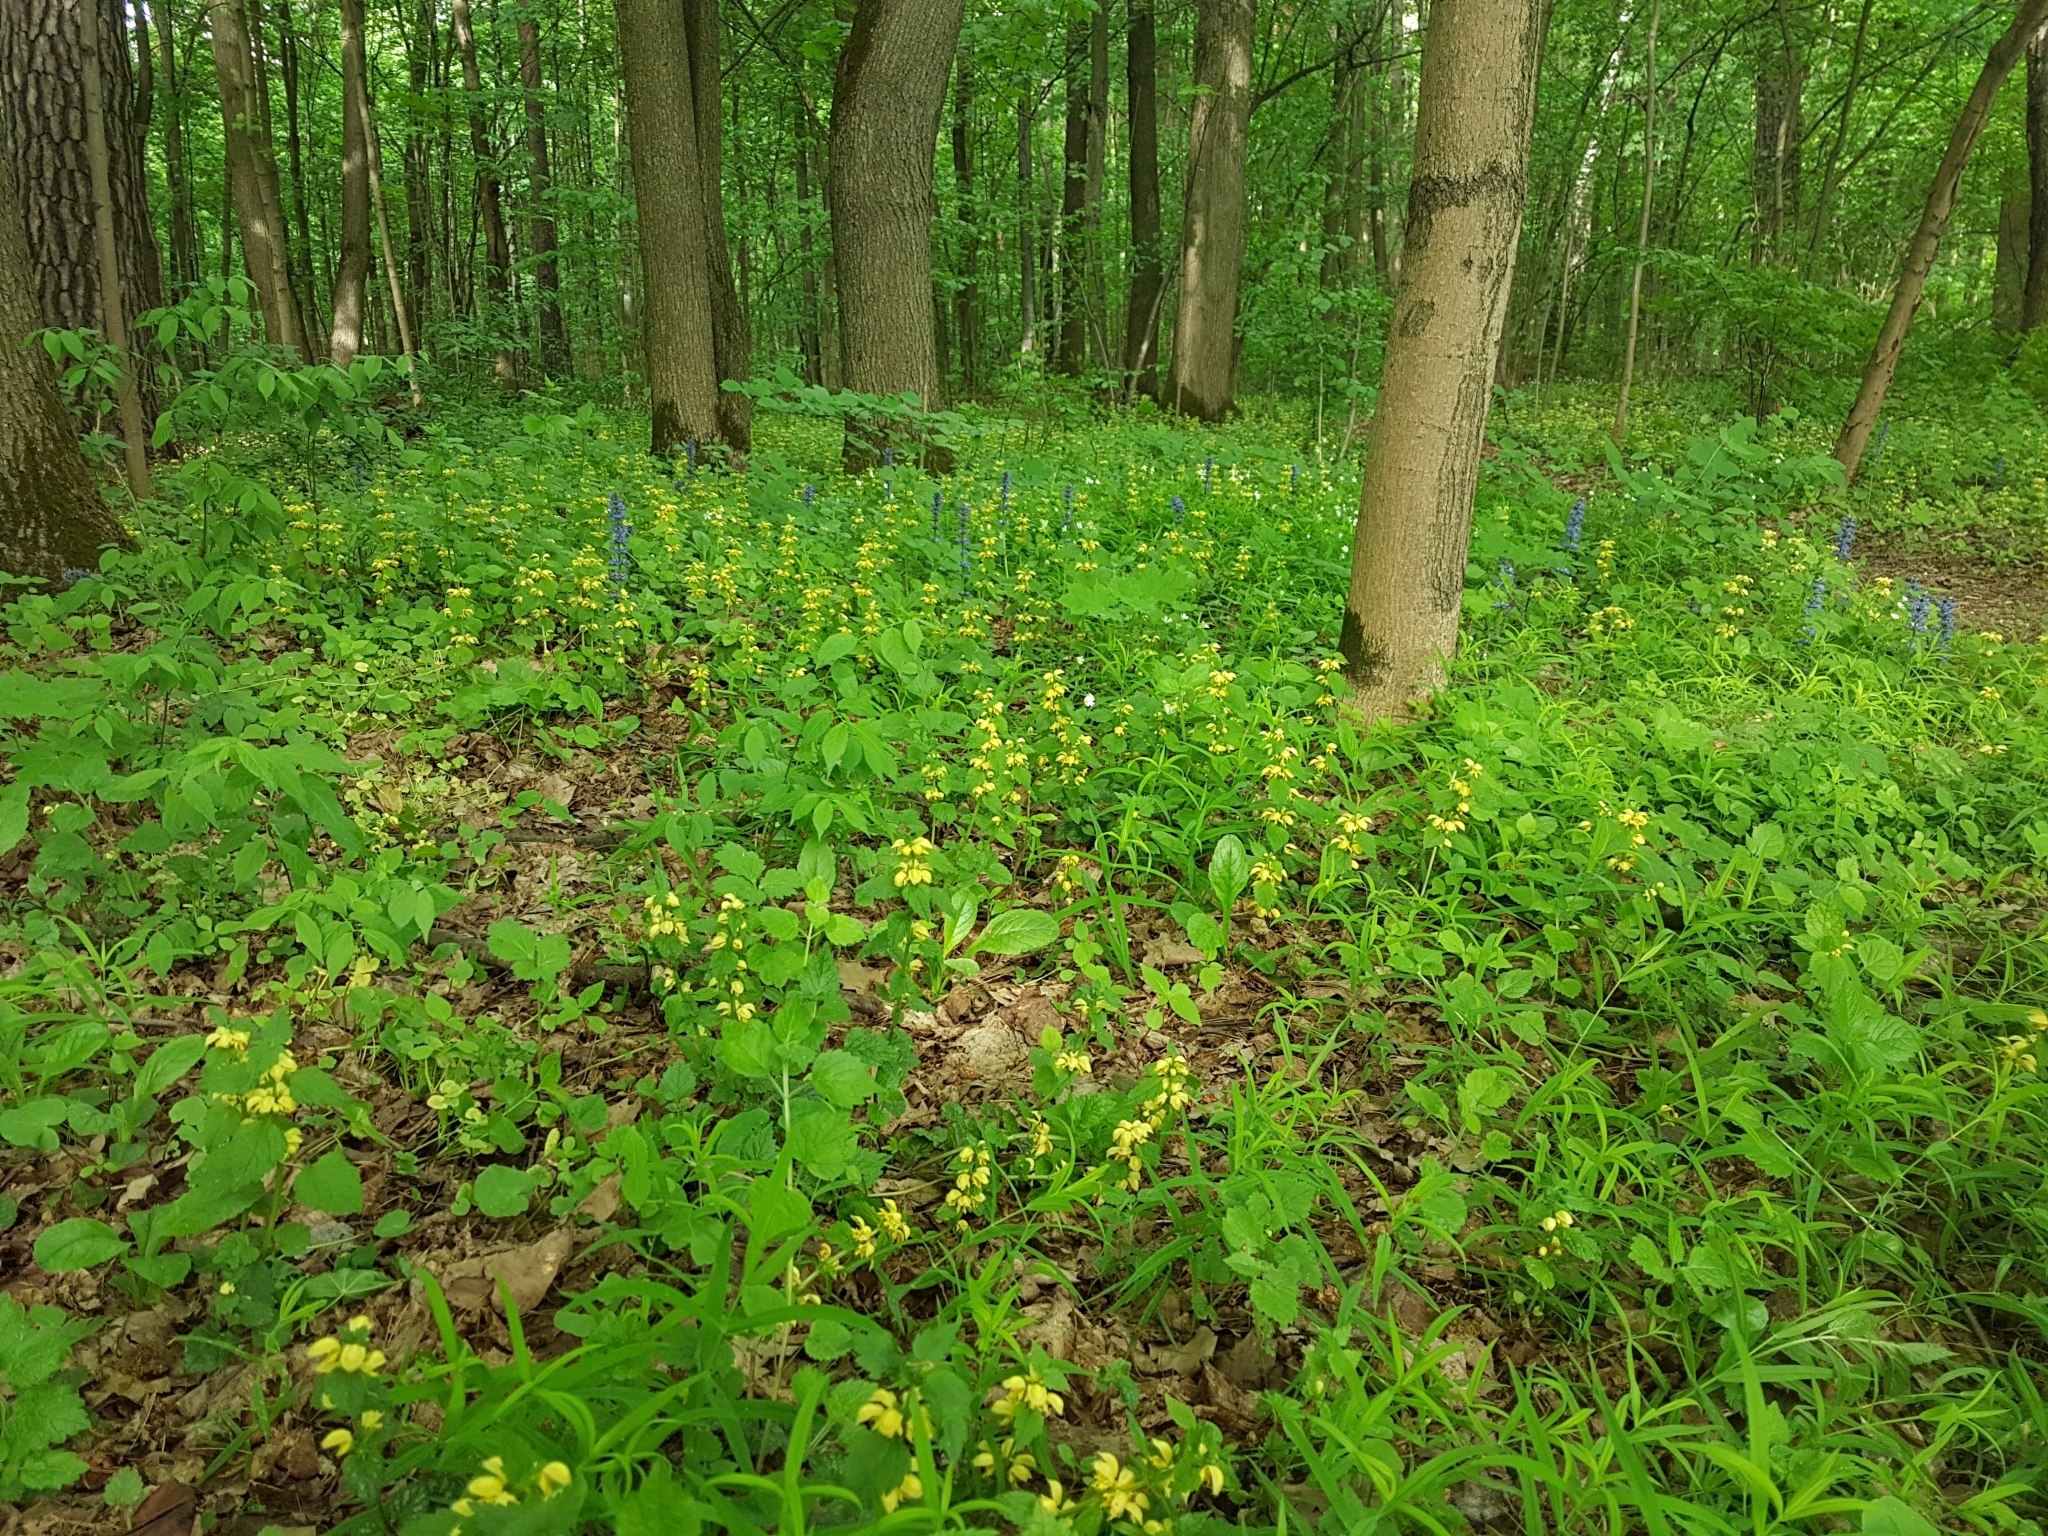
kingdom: Plantae
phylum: Tracheophyta
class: Magnoliopsida
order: Lamiales
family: Lamiaceae
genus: Lamium
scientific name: Lamium galeobdolon
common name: Yellow archangel
